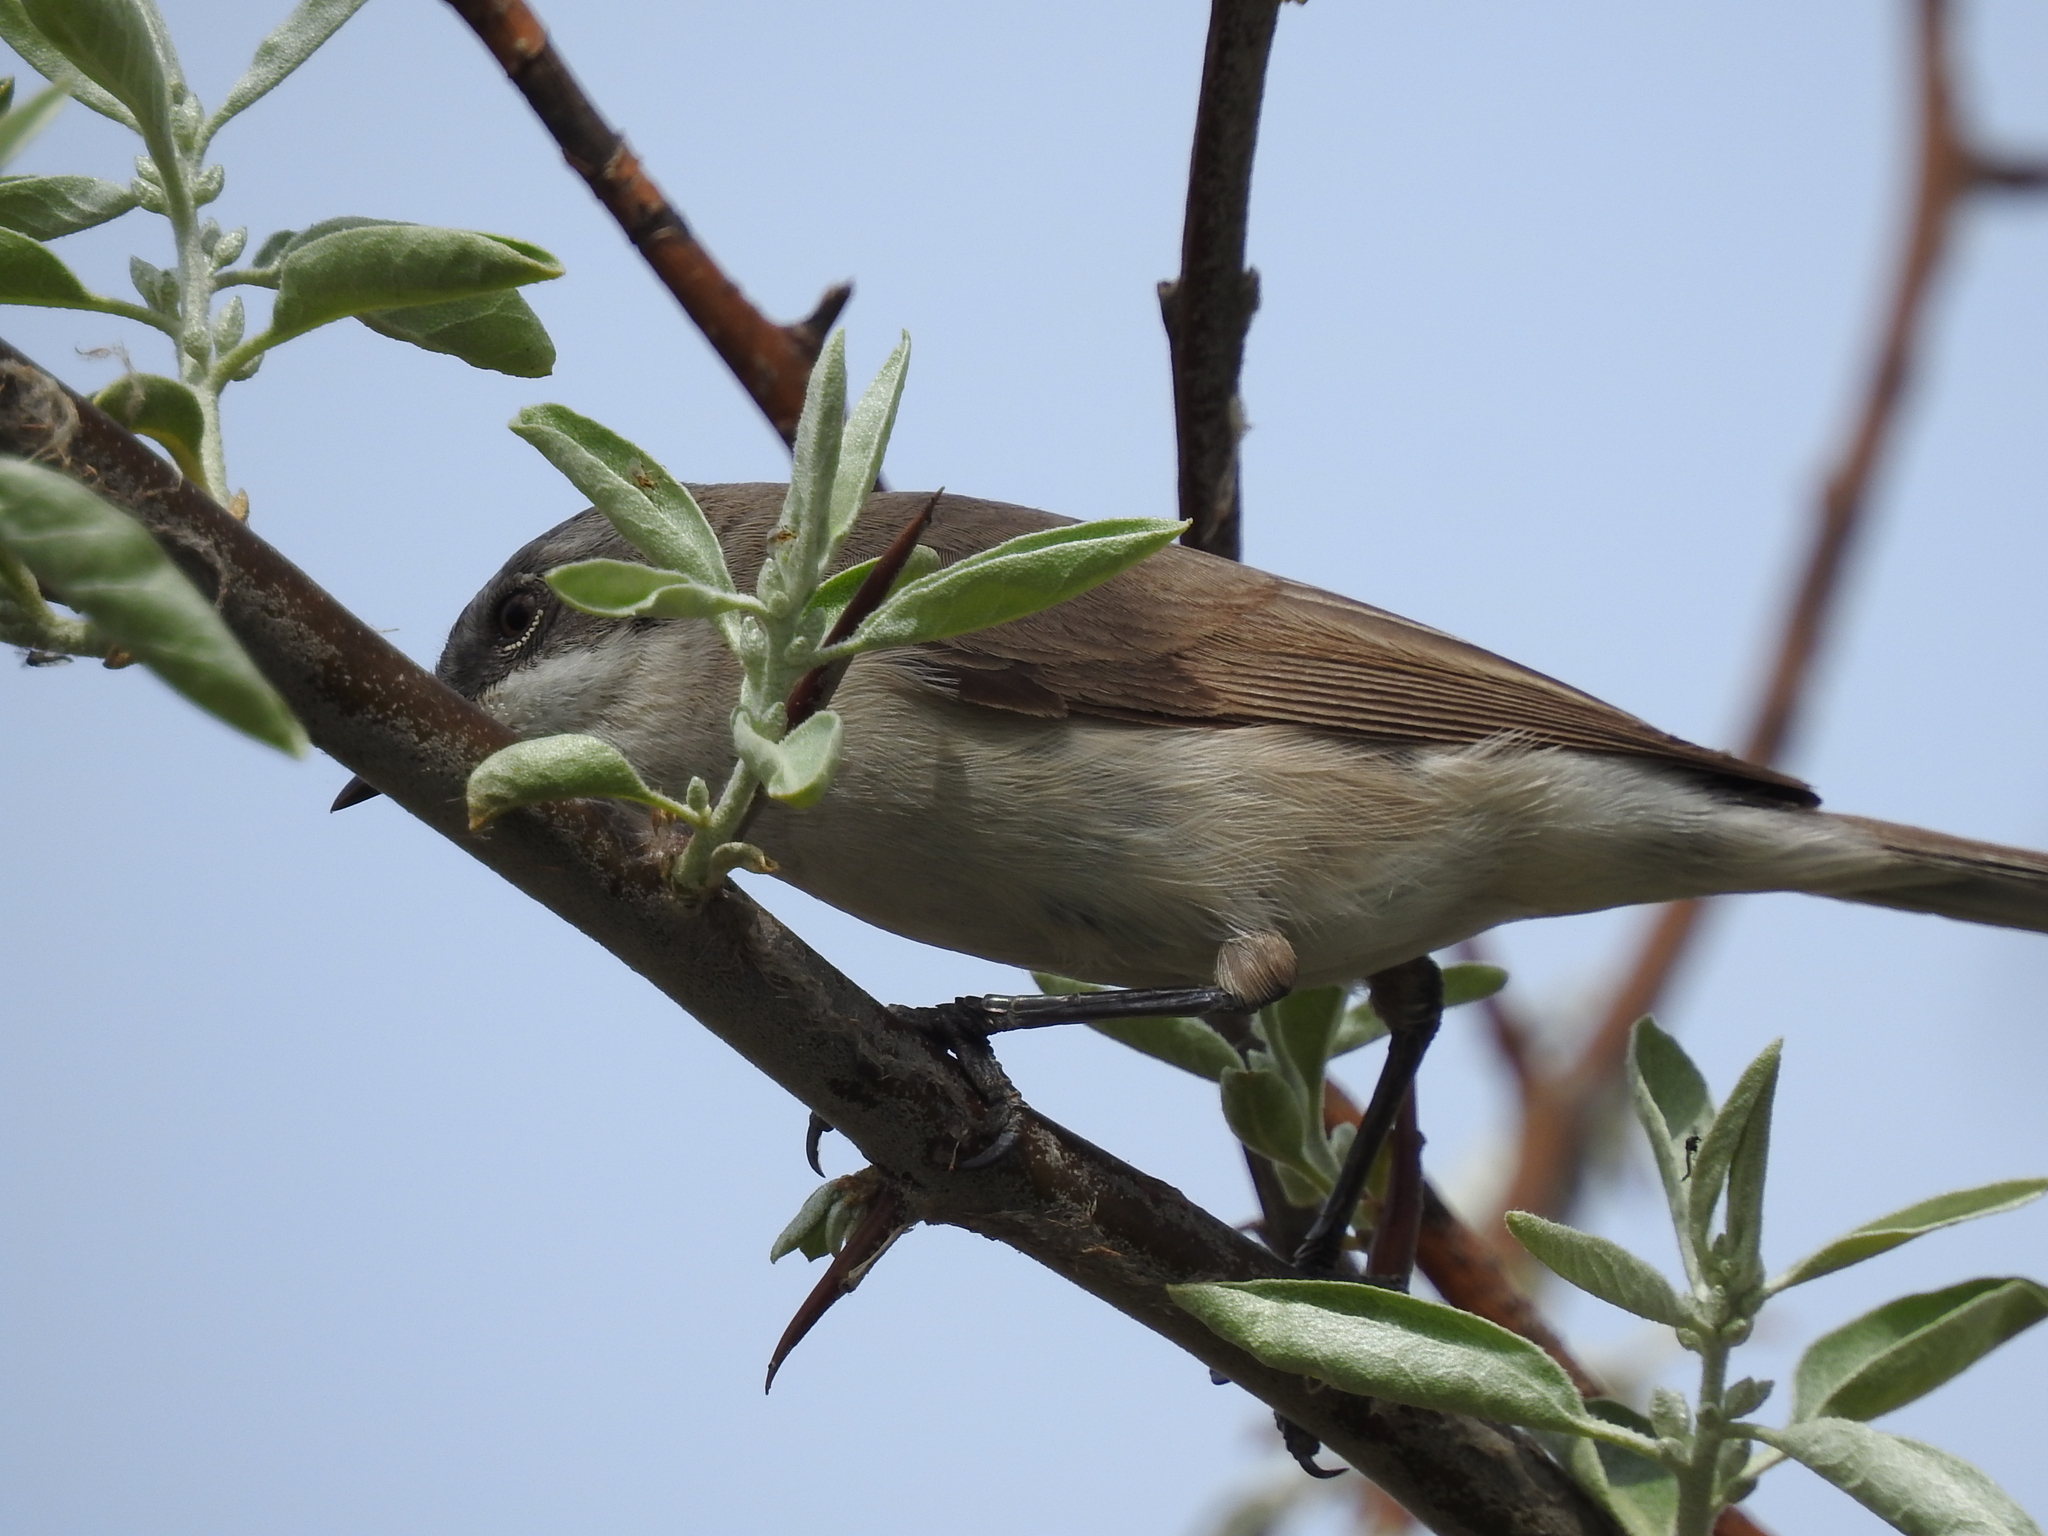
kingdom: Animalia
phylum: Chordata
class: Aves
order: Passeriformes
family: Sylviidae
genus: Sylvia
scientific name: Sylvia curruca
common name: Lesser whitethroat
